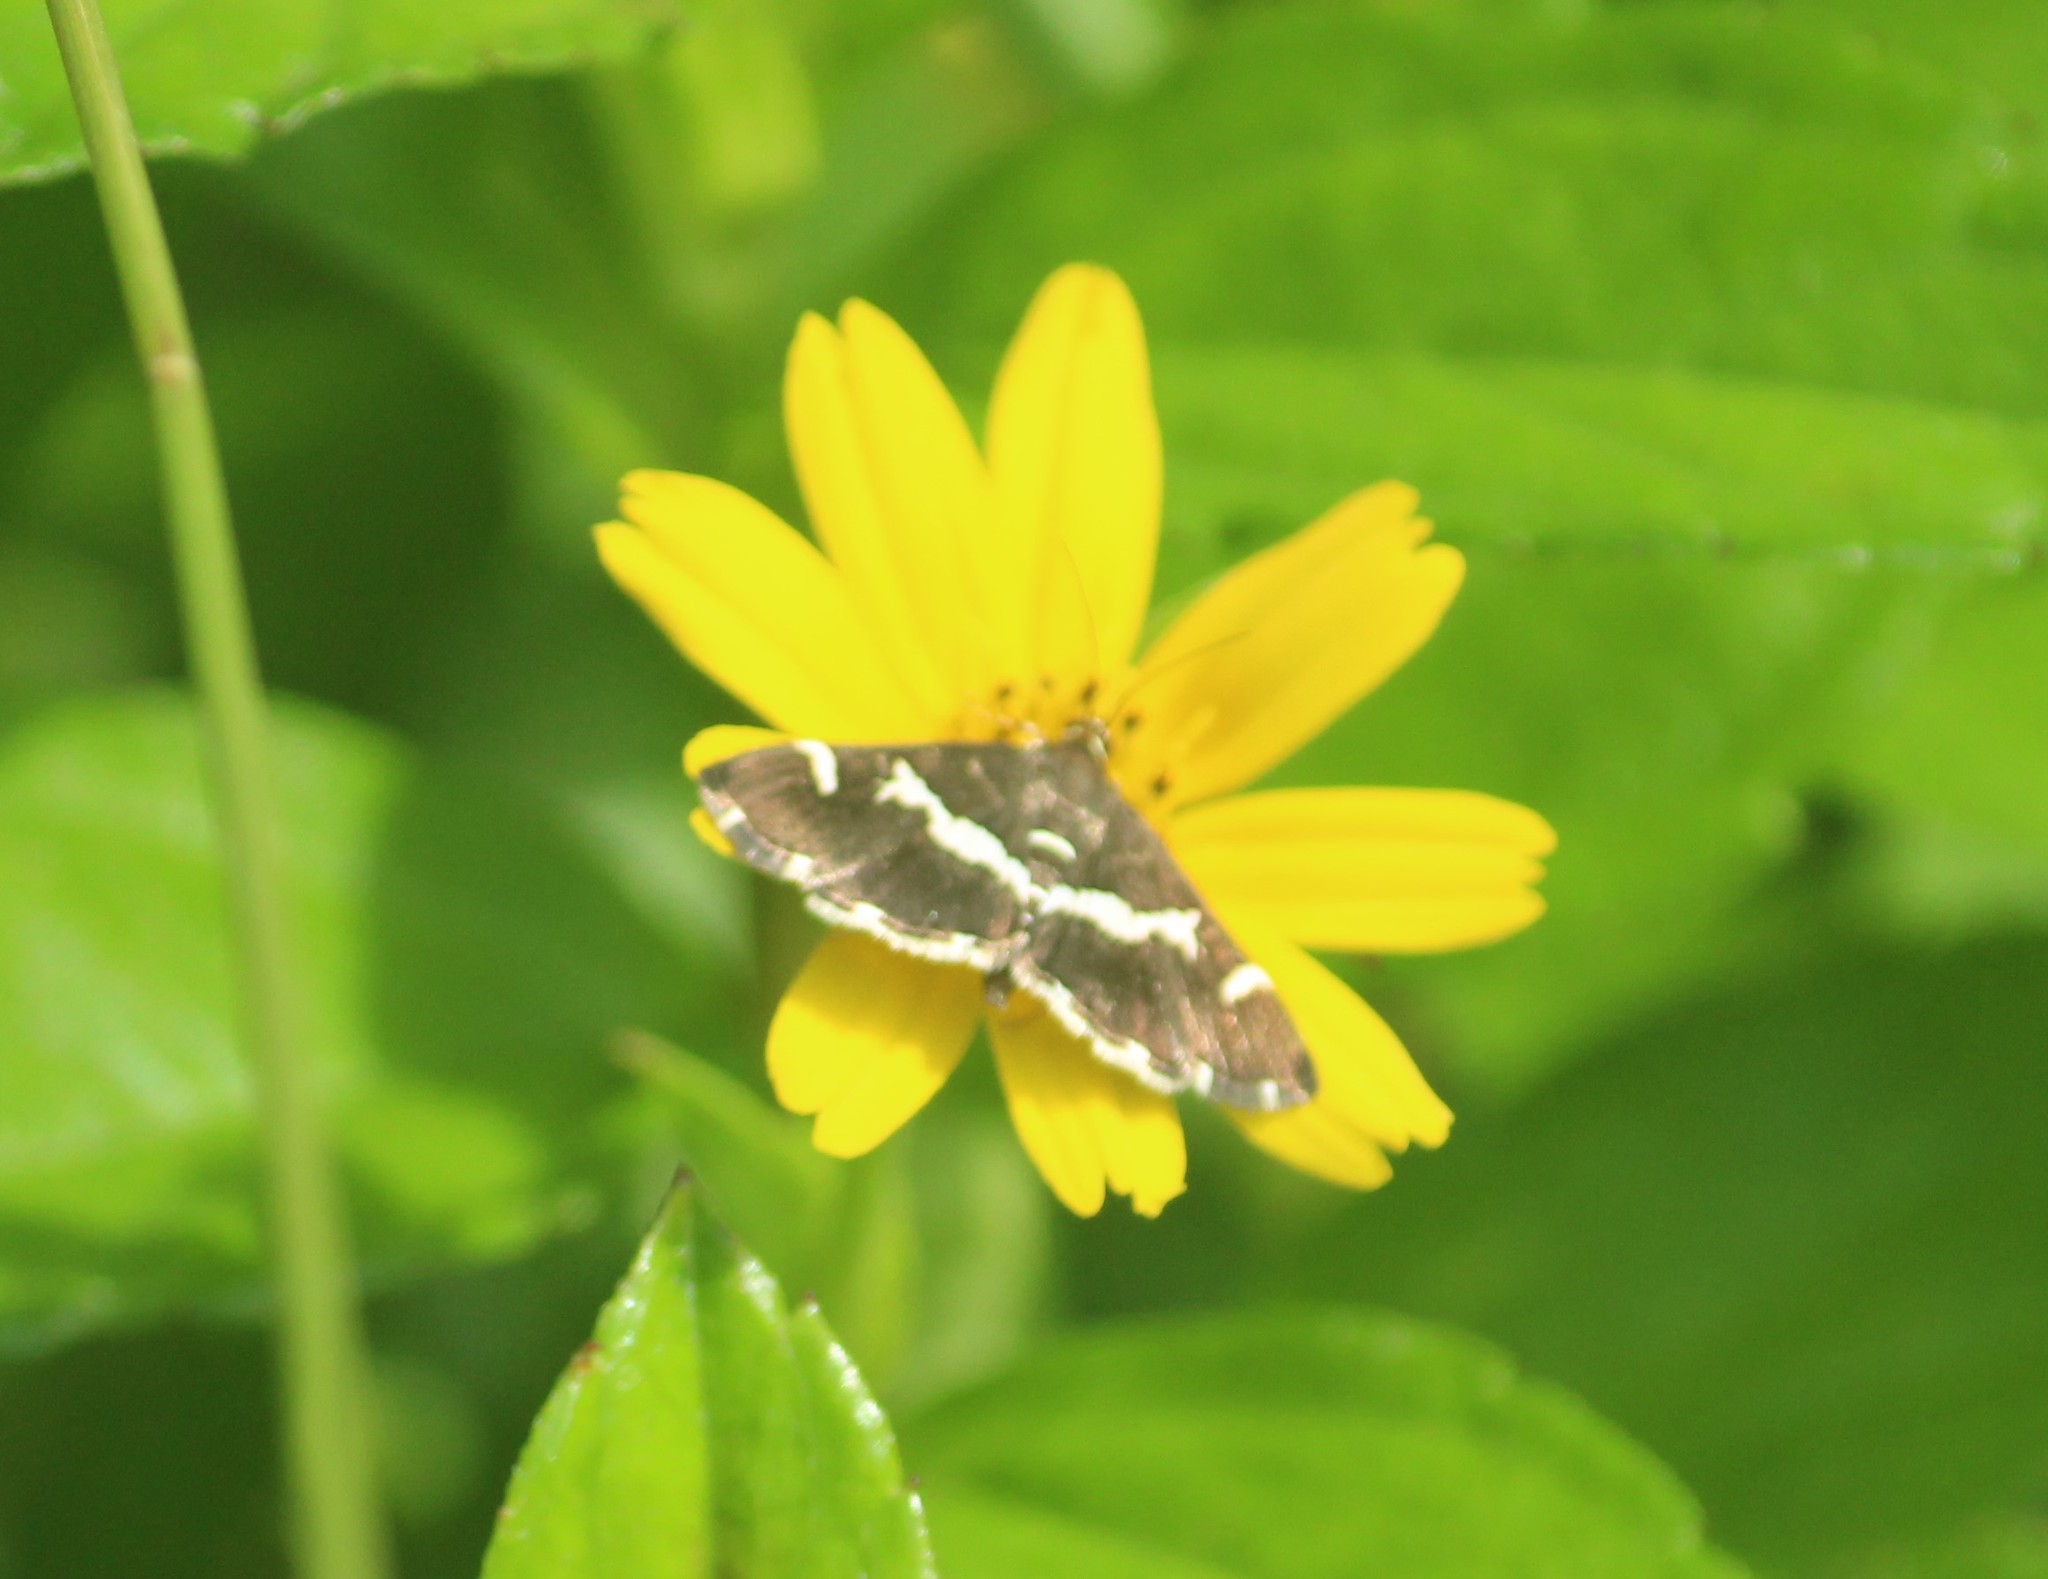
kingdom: Animalia
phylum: Arthropoda
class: Insecta
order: Lepidoptera
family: Crambidae
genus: Spoladea
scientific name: Spoladea recurvalis
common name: Beet webworm moth
